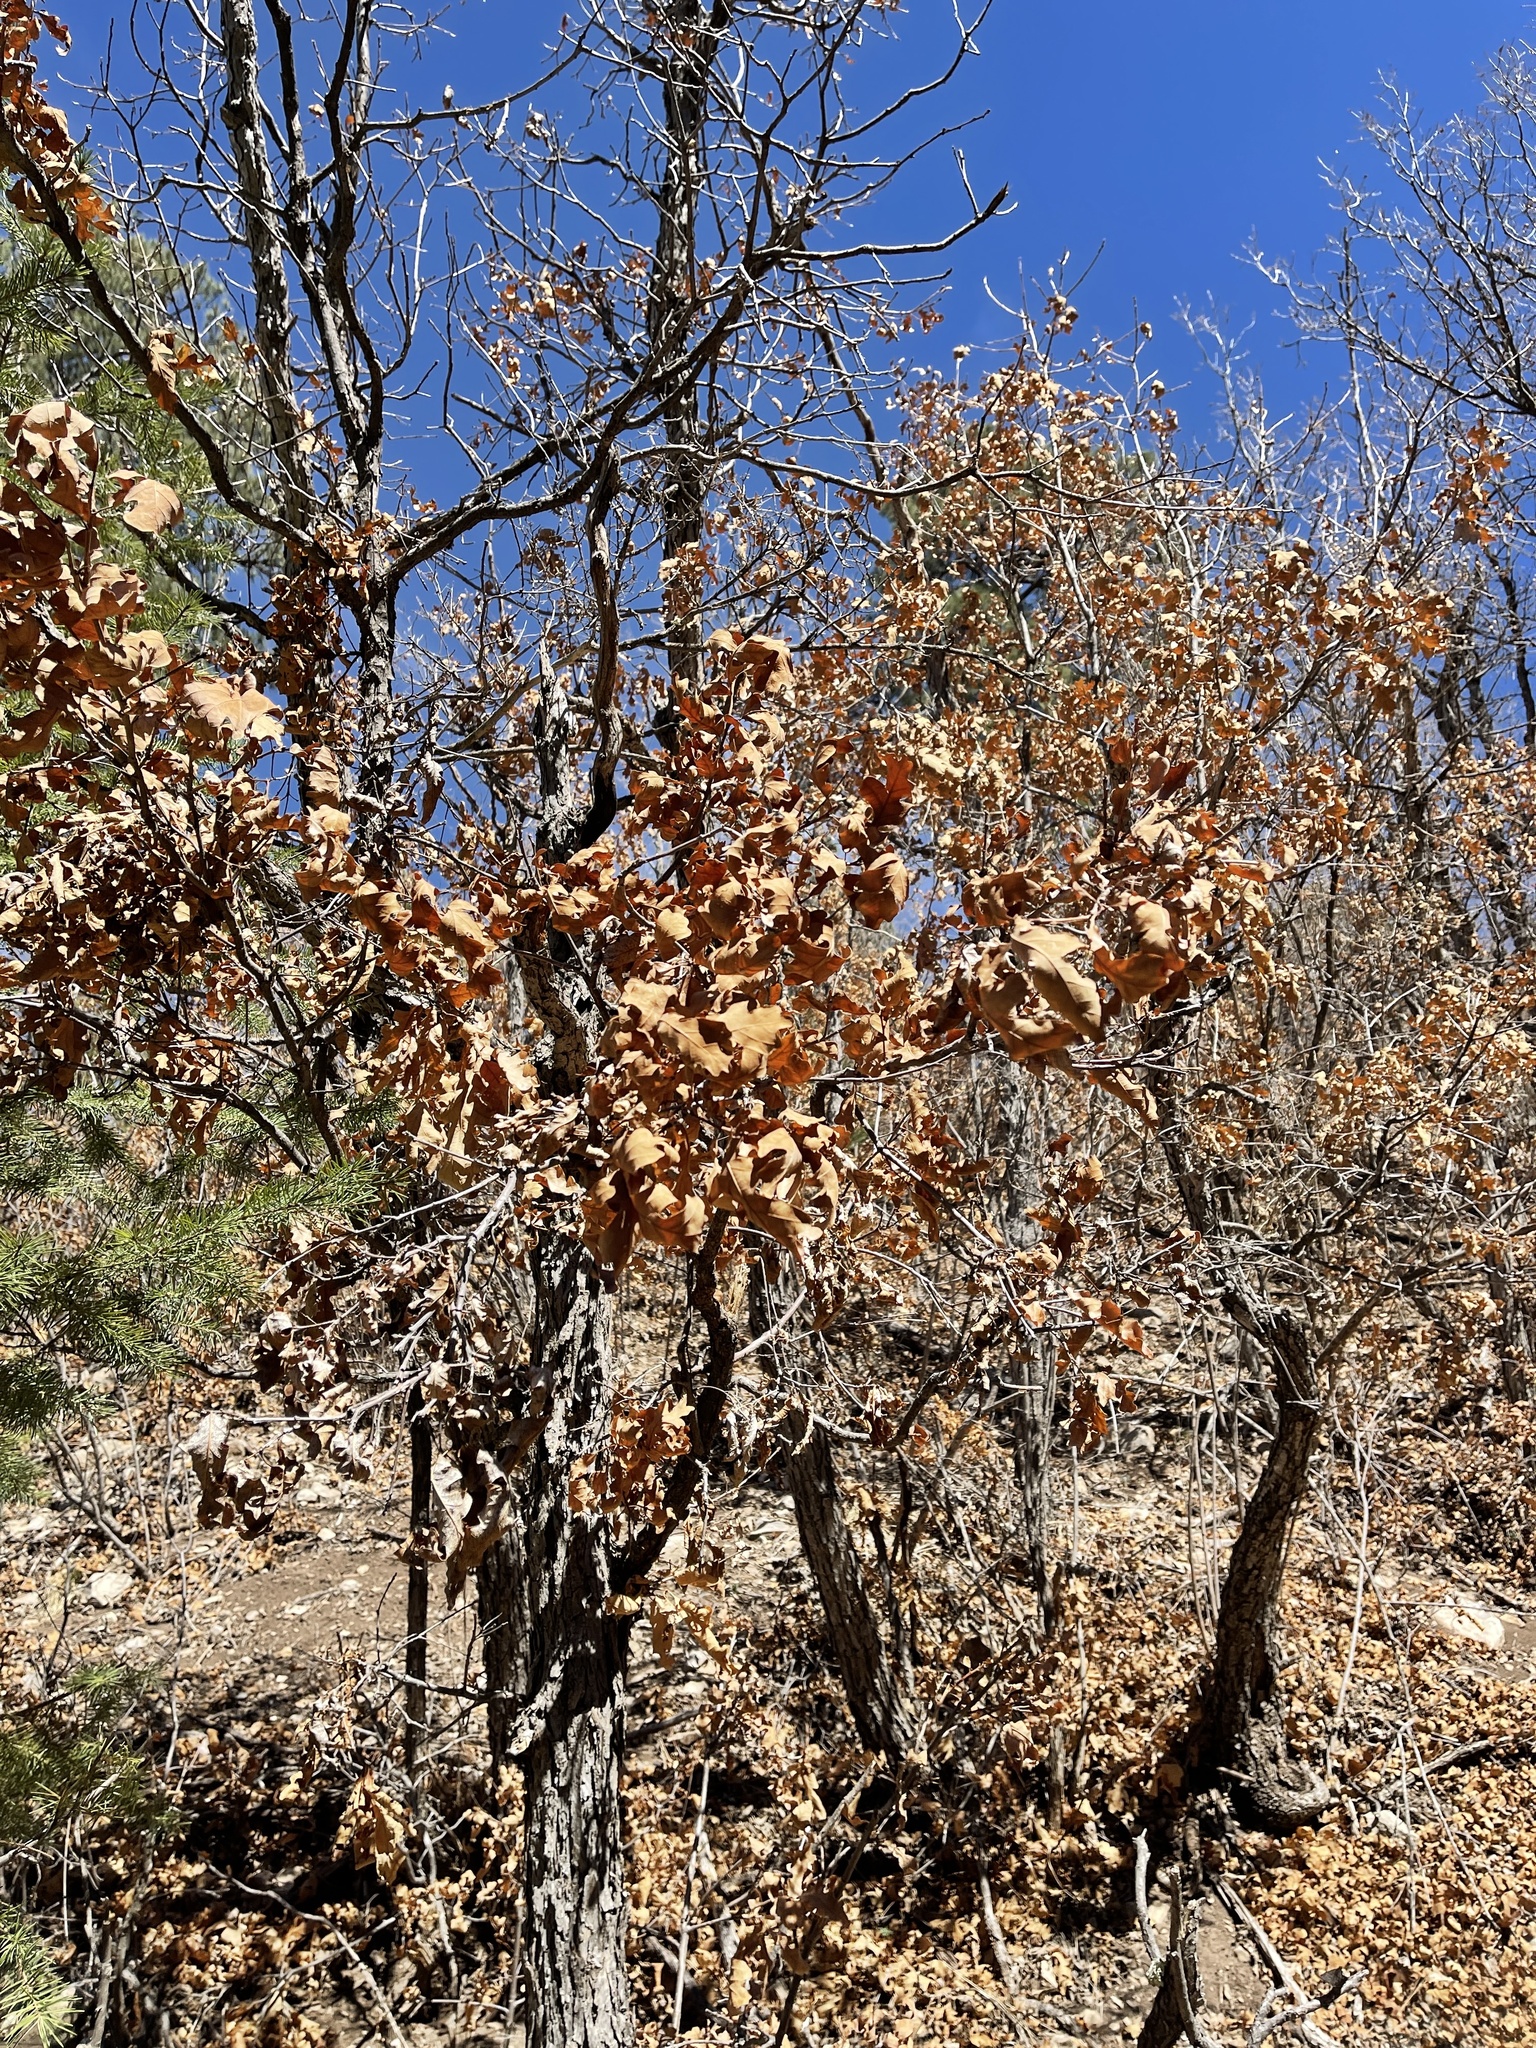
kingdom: Plantae
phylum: Tracheophyta
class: Magnoliopsida
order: Fagales
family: Fagaceae
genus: Quercus
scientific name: Quercus gambelii
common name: Gambel oak
